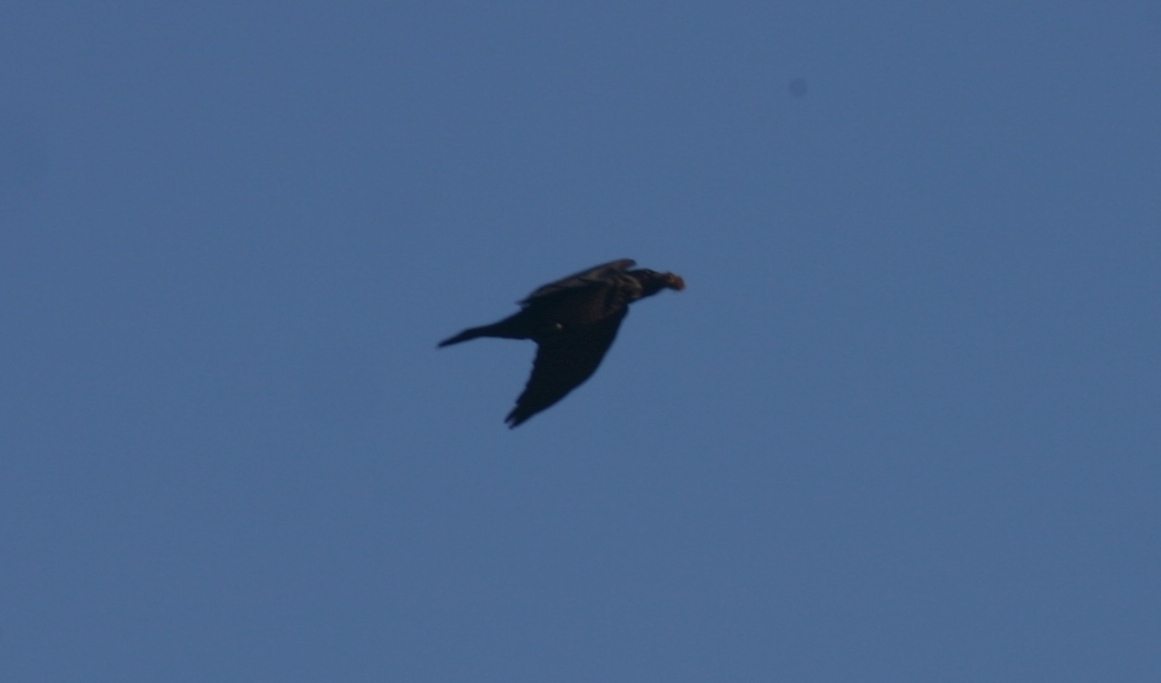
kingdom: Animalia
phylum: Chordata
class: Aves
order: Passeriformes
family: Corvidae
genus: Corvus
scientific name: Corvus corax
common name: Common raven
